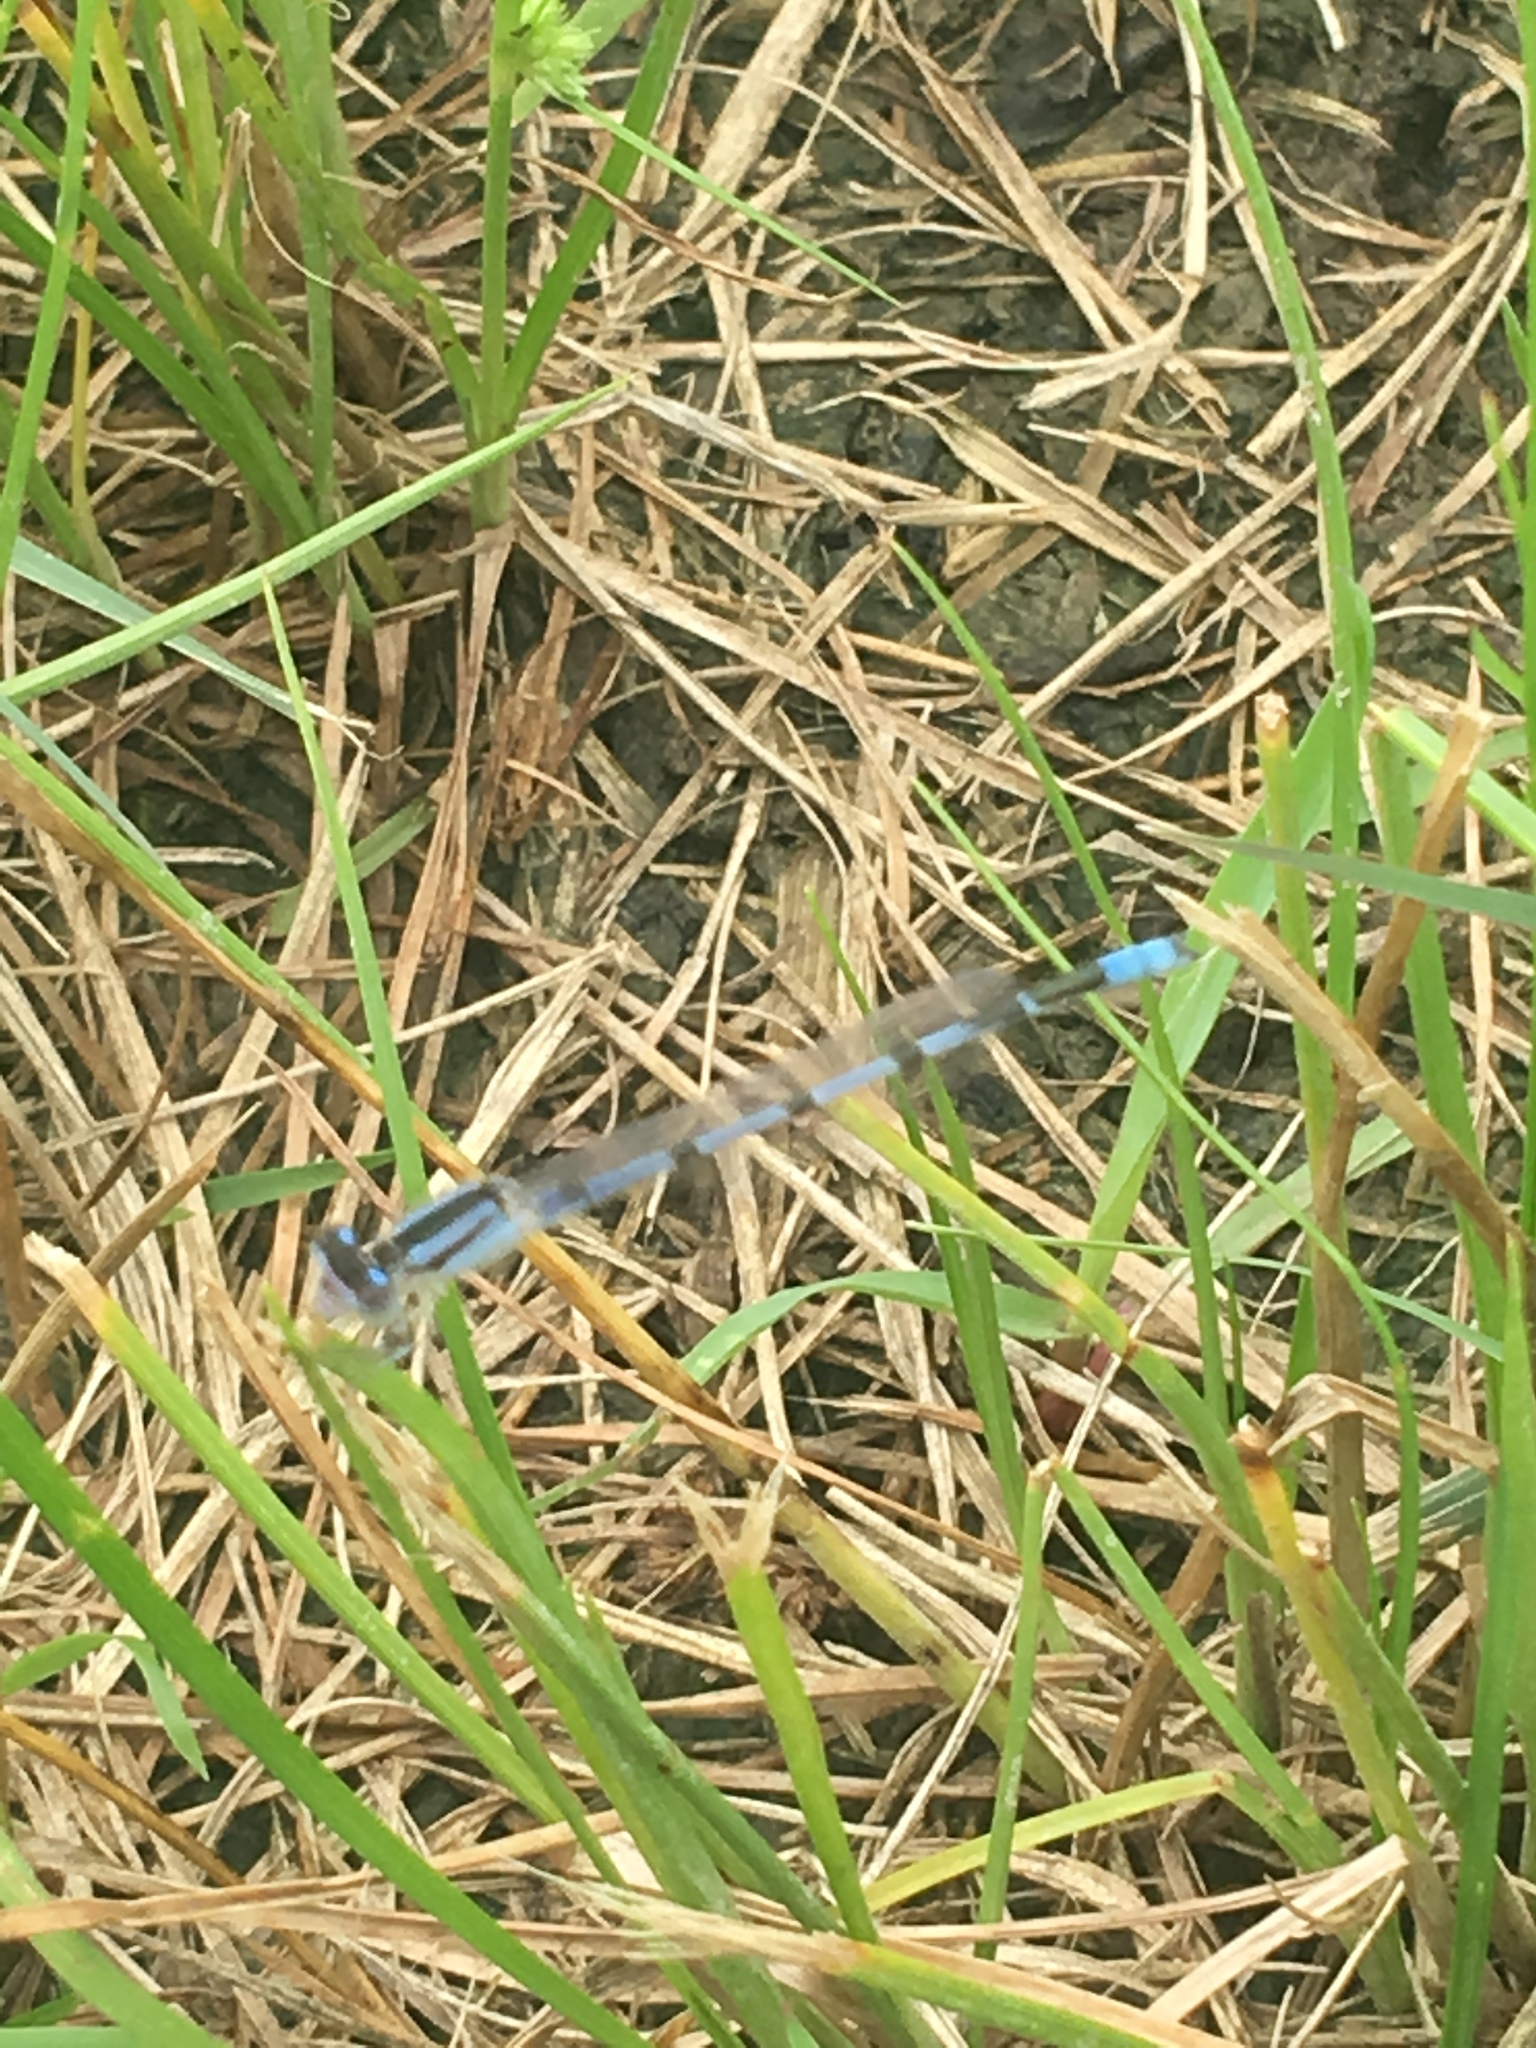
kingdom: Animalia
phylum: Arthropoda
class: Insecta
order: Odonata
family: Coenagrionidae
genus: Enallagma
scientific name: Enallagma civile
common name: Damselfly
